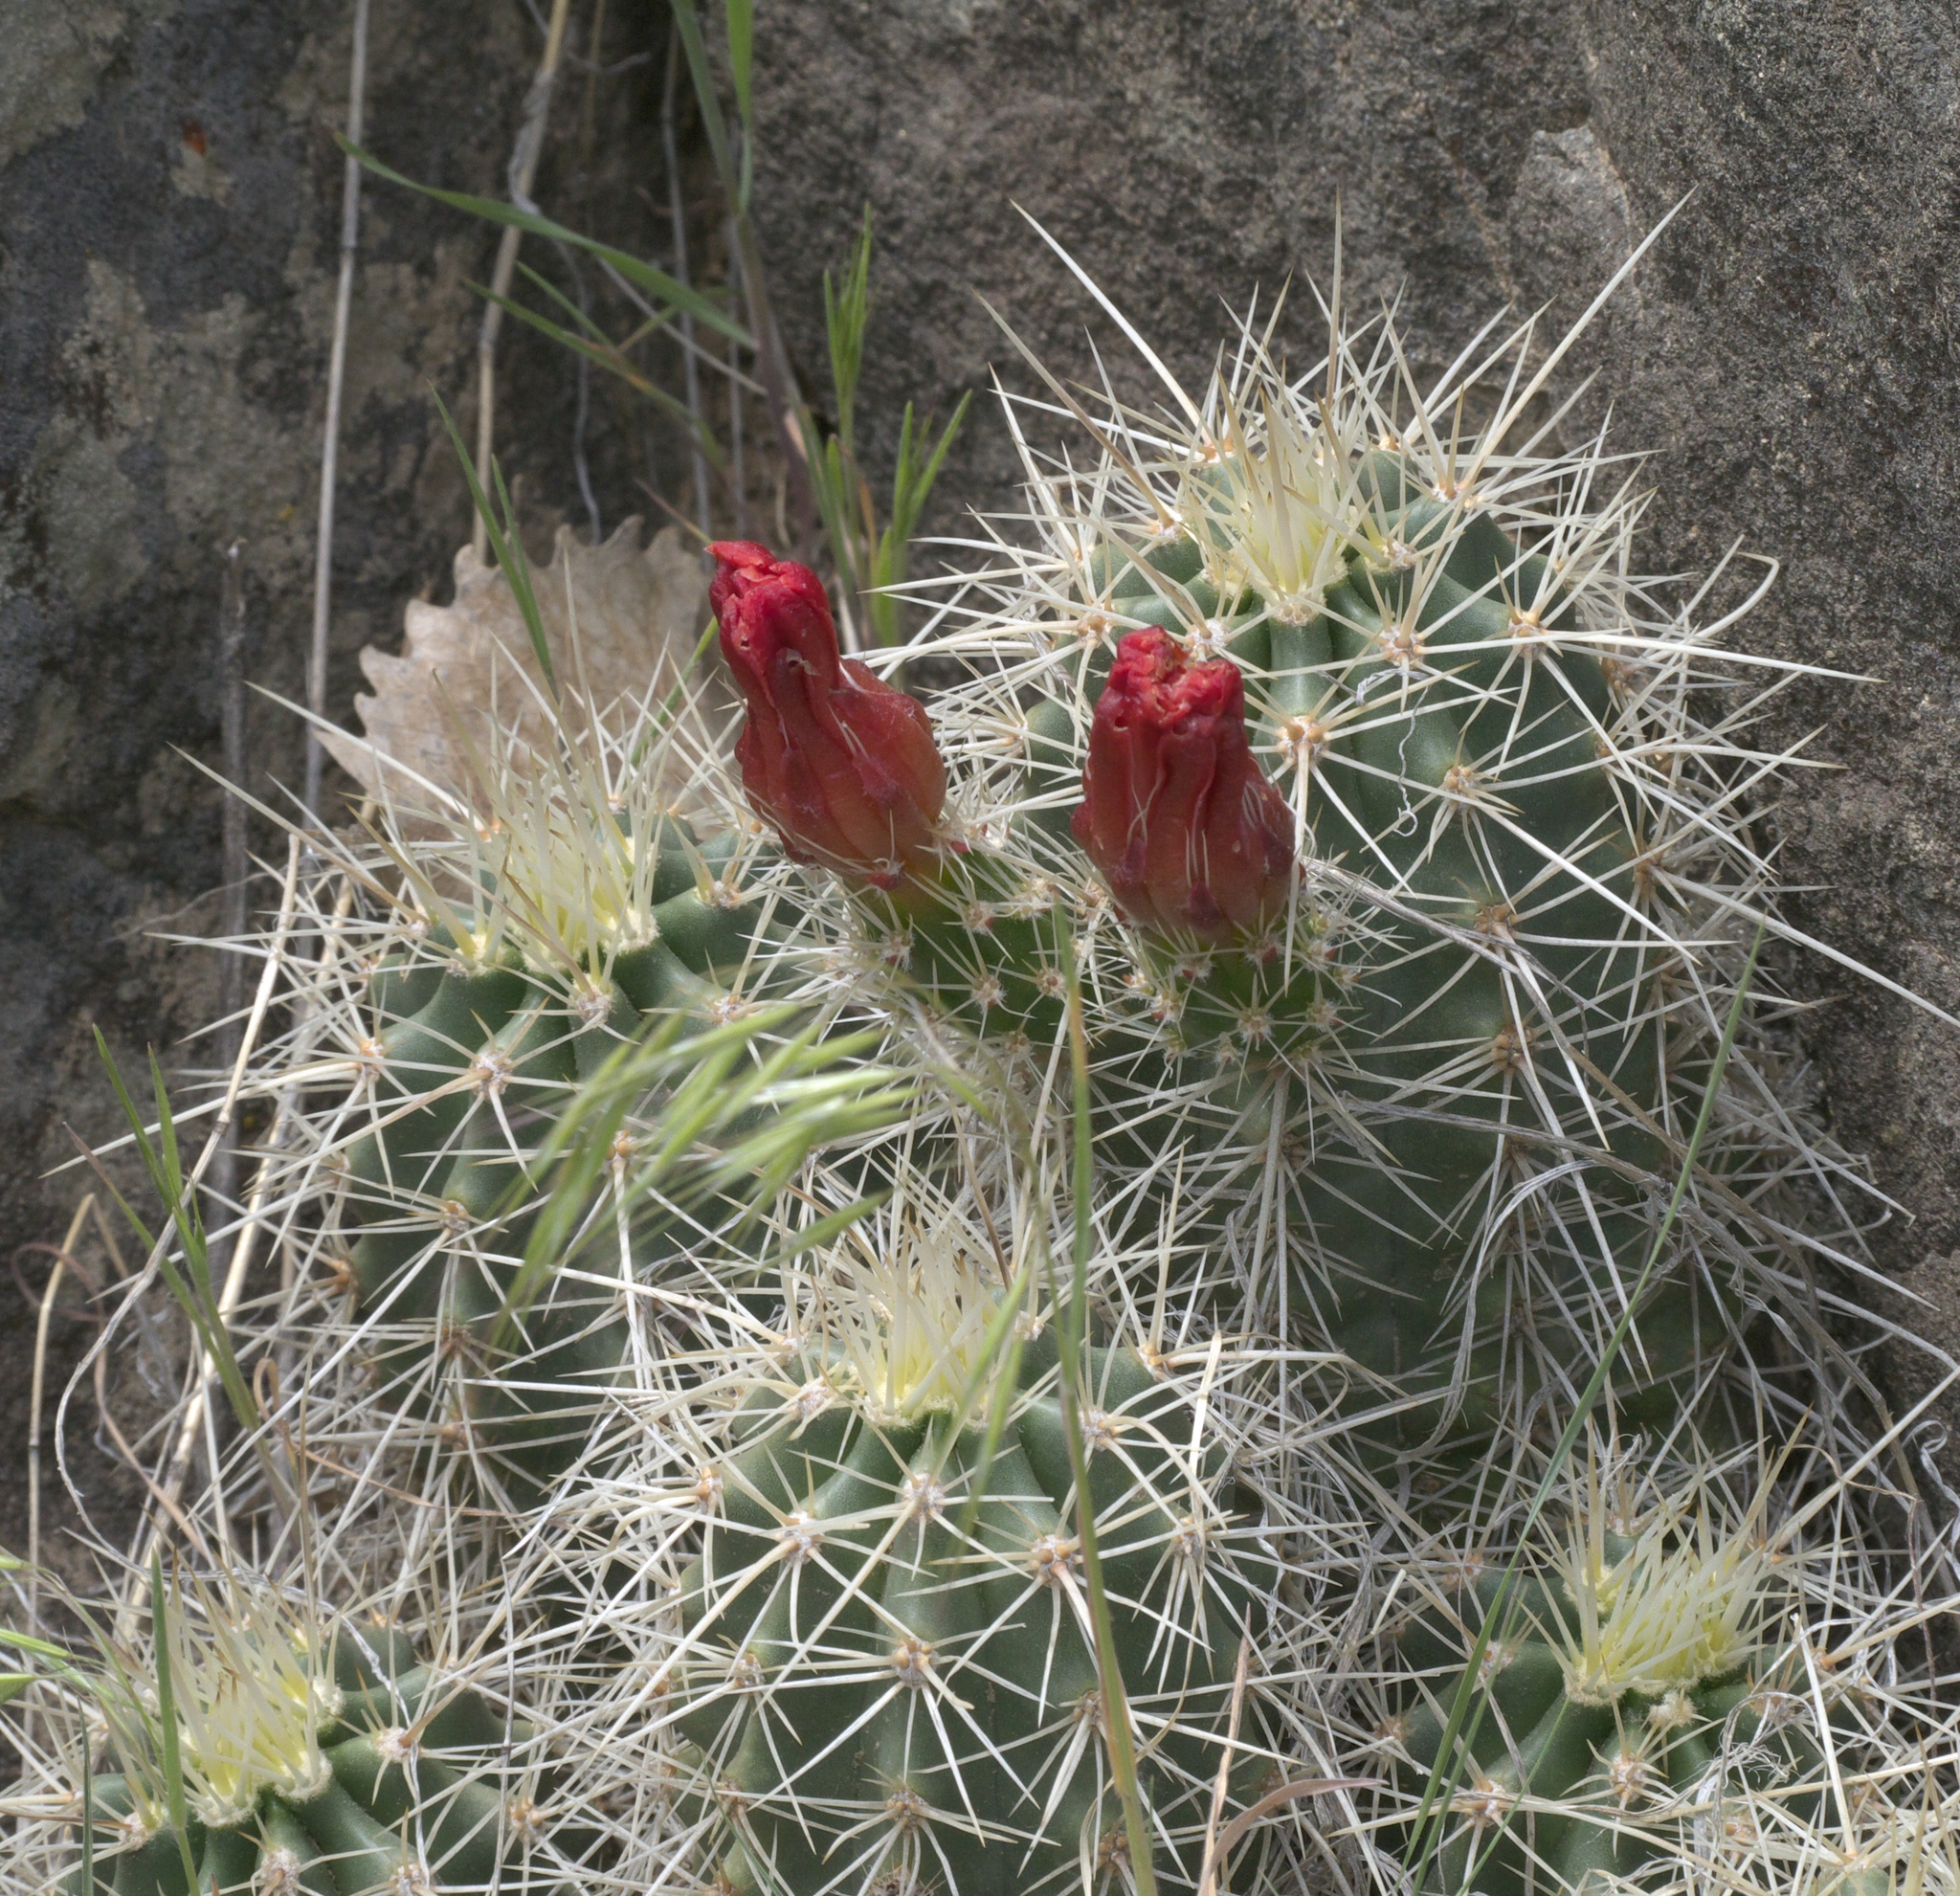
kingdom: Plantae
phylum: Tracheophyta
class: Magnoliopsida
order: Caryophyllales
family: Cactaceae
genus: Echinocereus
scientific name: Echinocereus coccineus
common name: Scarlet hedgehog cactus
